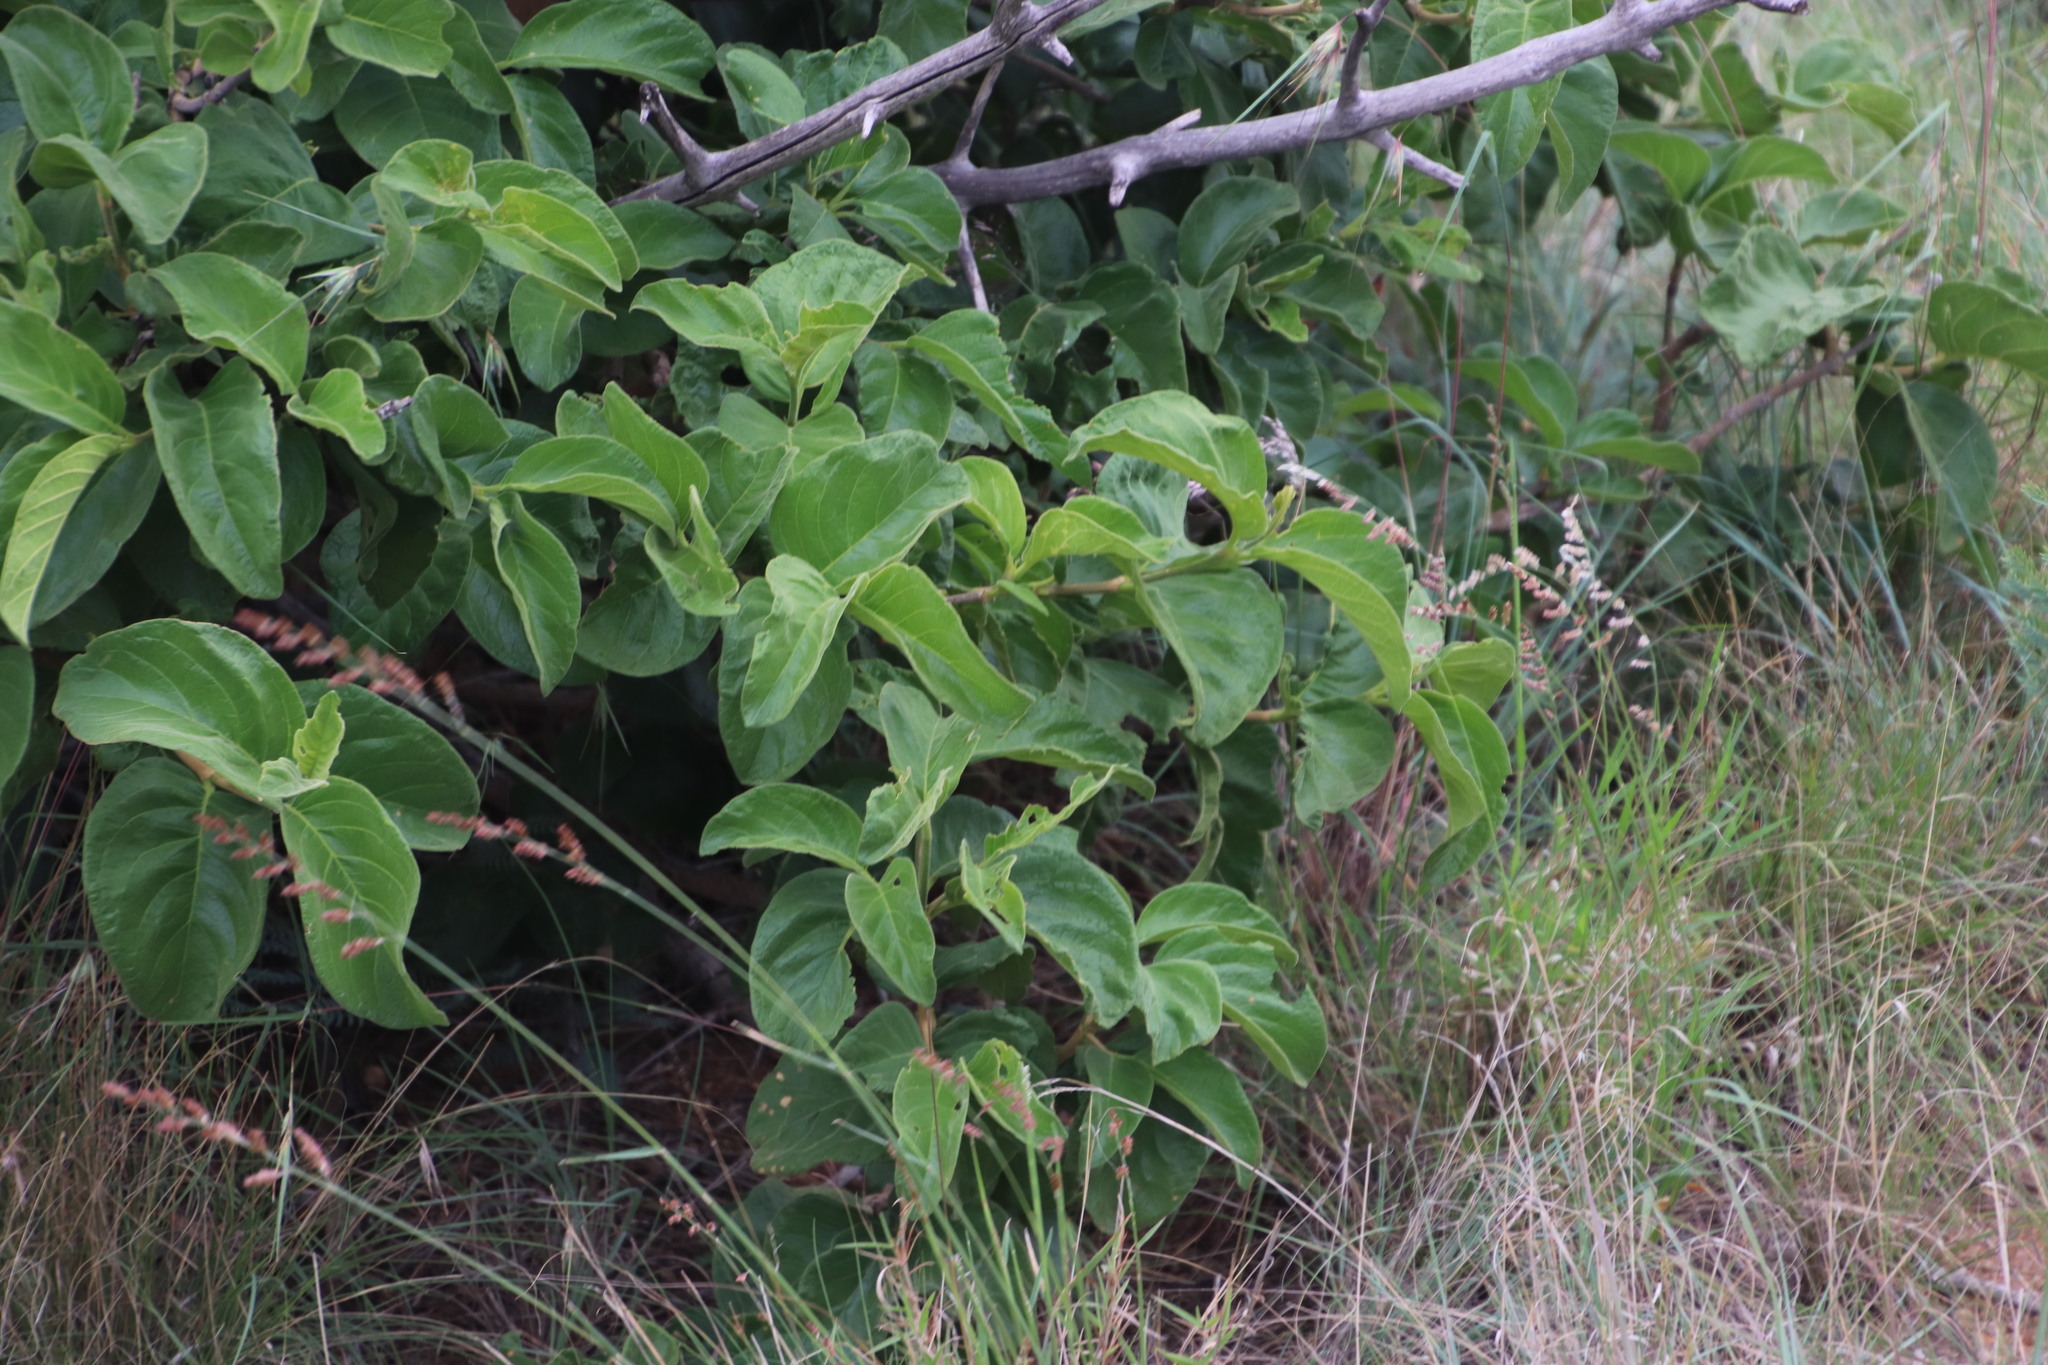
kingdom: Plantae
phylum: Tracheophyta
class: Magnoliopsida
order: Myrtales
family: Combretaceae
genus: Combretum
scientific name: Combretum zeyheri
